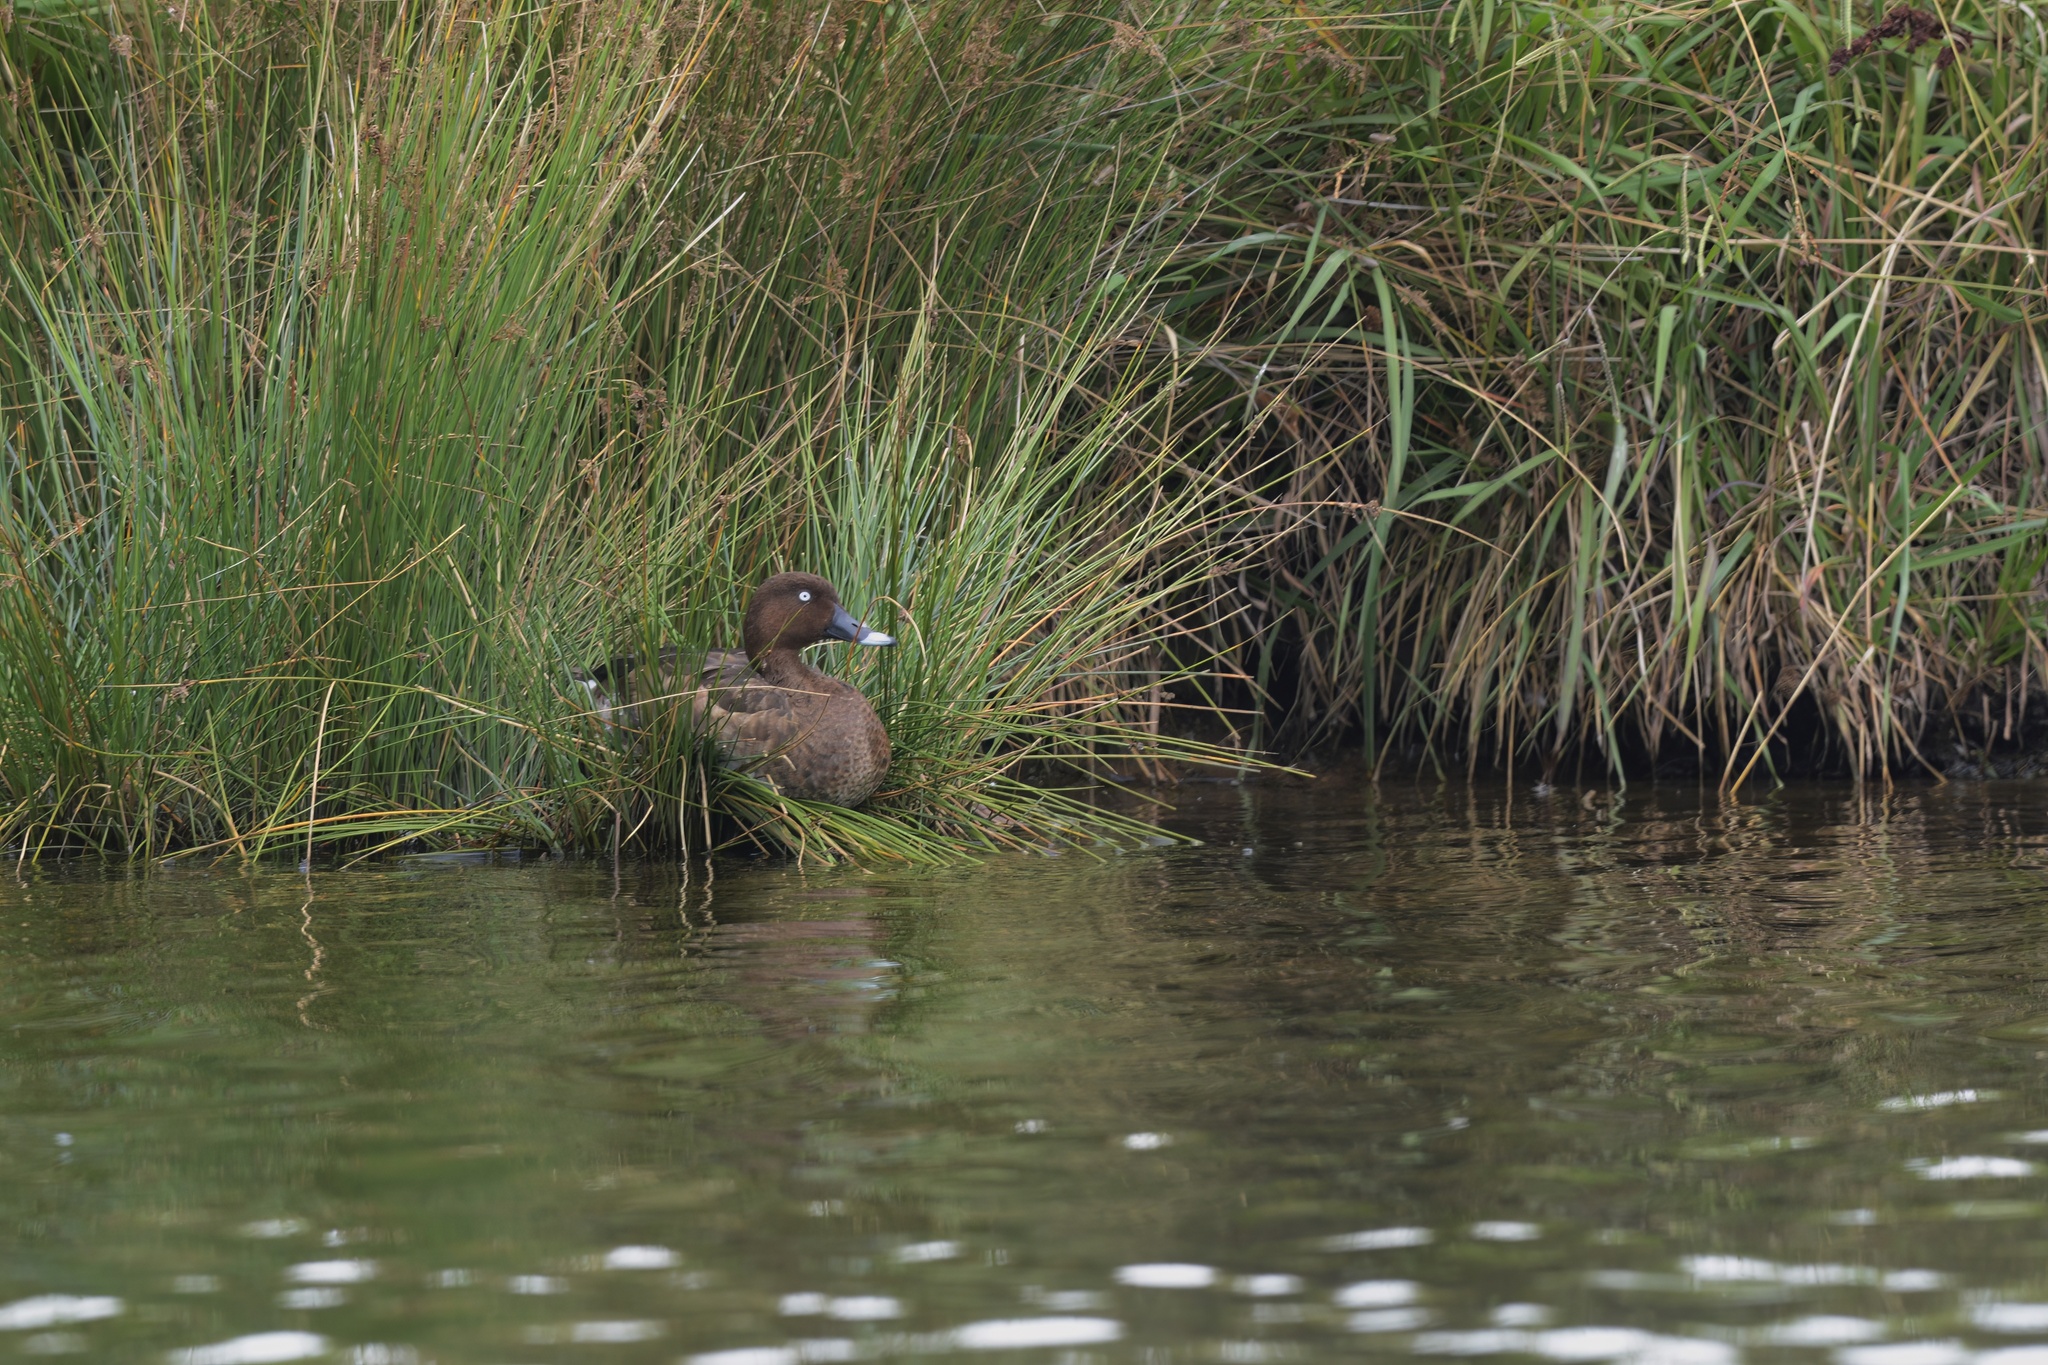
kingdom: Animalia
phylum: Chordata
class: Aves
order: Anseriformes
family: Anatidae
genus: Aythya
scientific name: Aythya australis
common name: Hardhead
